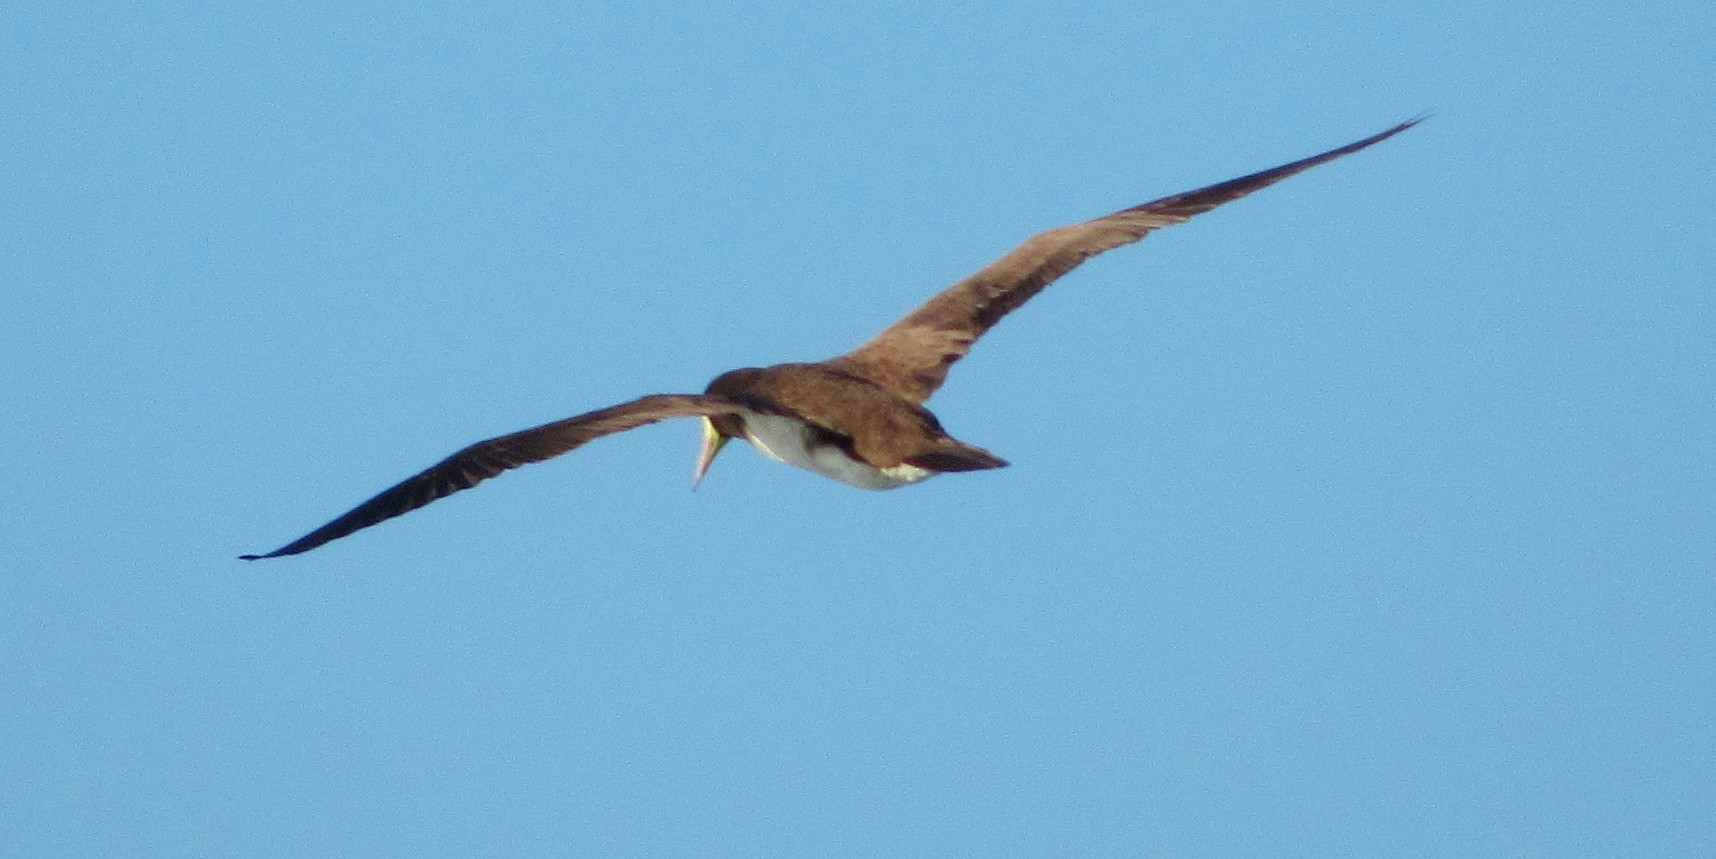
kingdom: Animalia
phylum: Chordata
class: Aves
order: Suliformes
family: Sulidae
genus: Sula
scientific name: Sula leucogaster
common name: Brown booby
